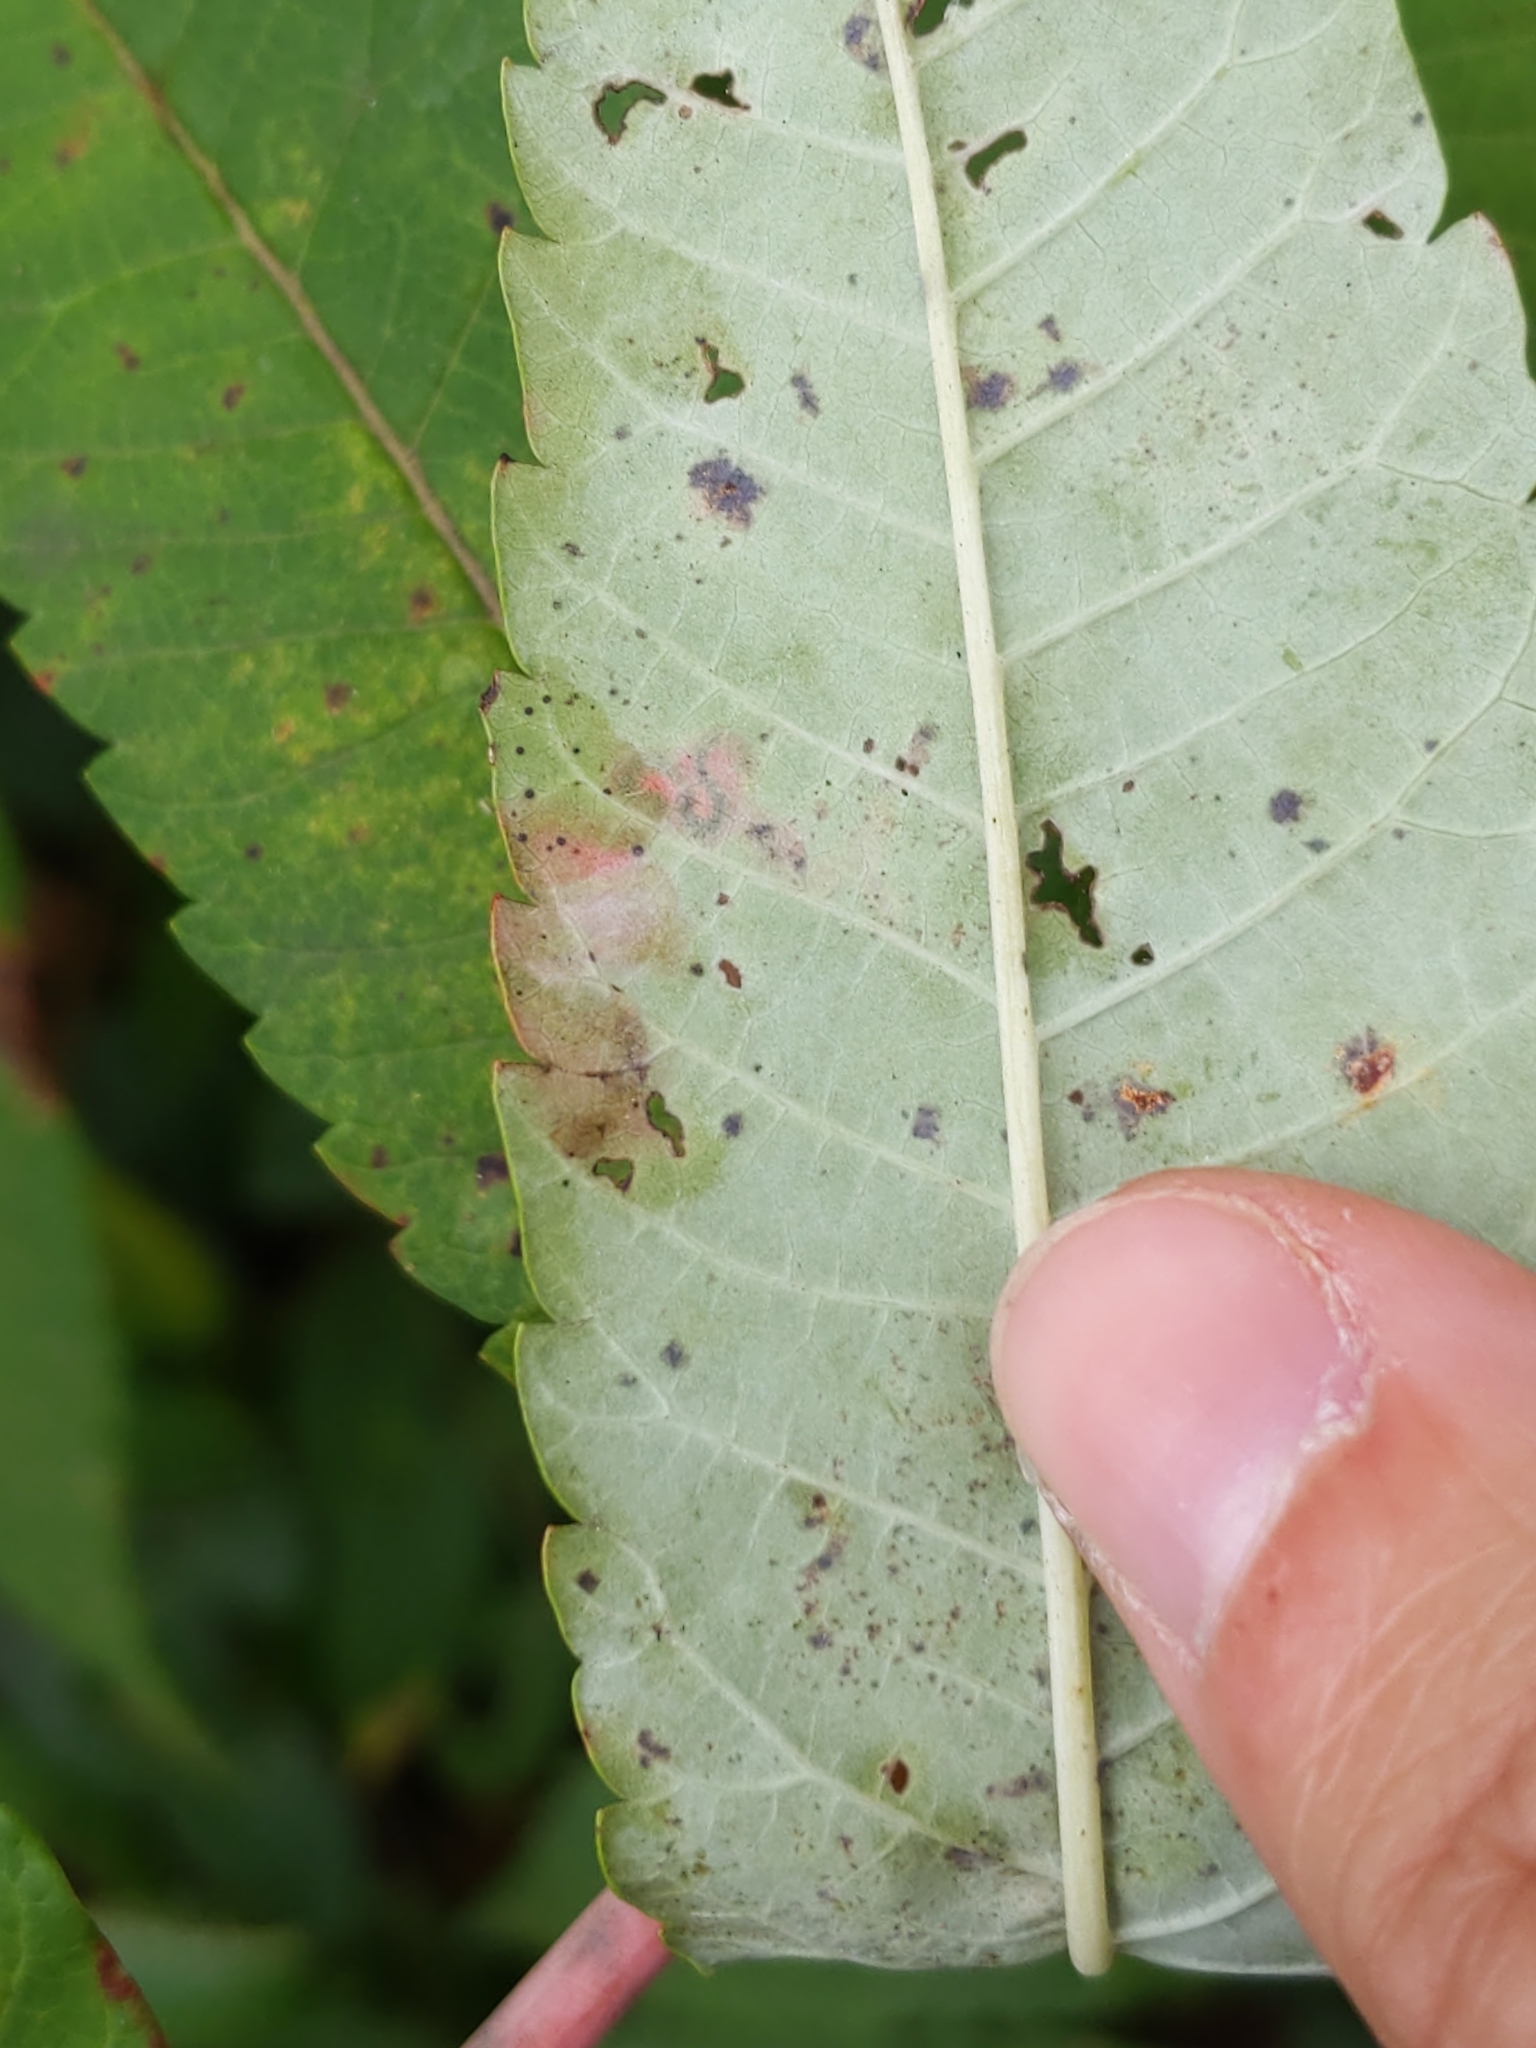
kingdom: Animalia
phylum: Arthropoda
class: Insecta
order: Lepidoptera
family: Nepticulidae
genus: Stigmella
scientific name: Stigmella intermedia
